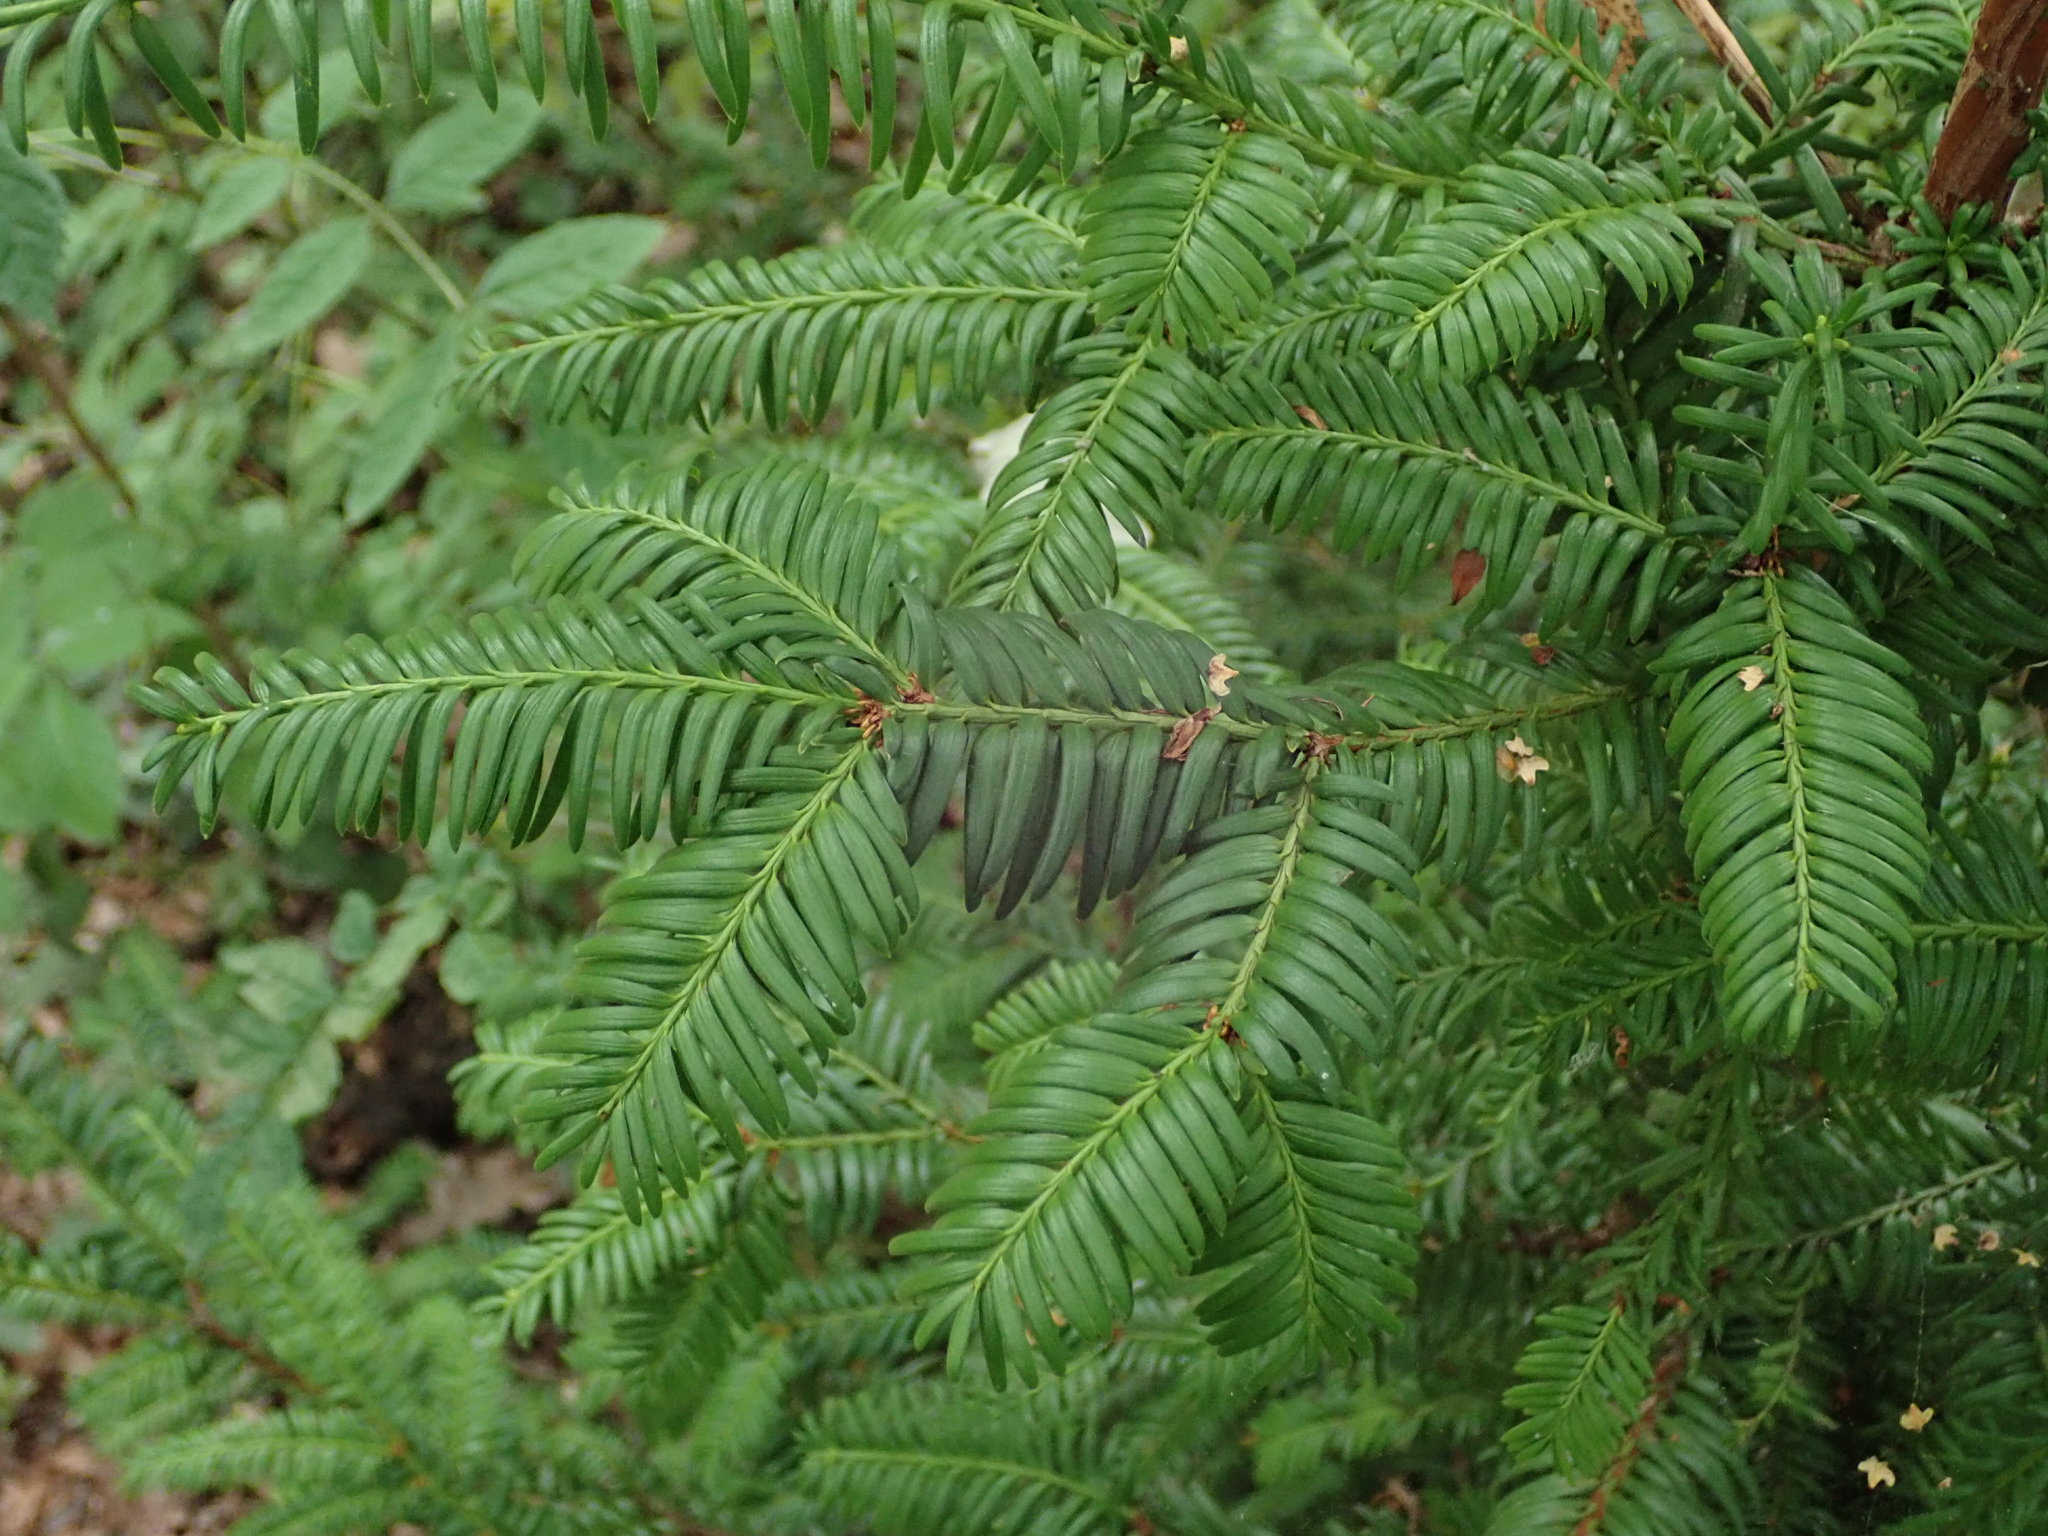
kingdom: Plantae
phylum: Tracheophyta
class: Pinopsida
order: Pinales
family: Taxaceae
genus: Taxus
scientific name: Taxus baccata
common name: Yew
